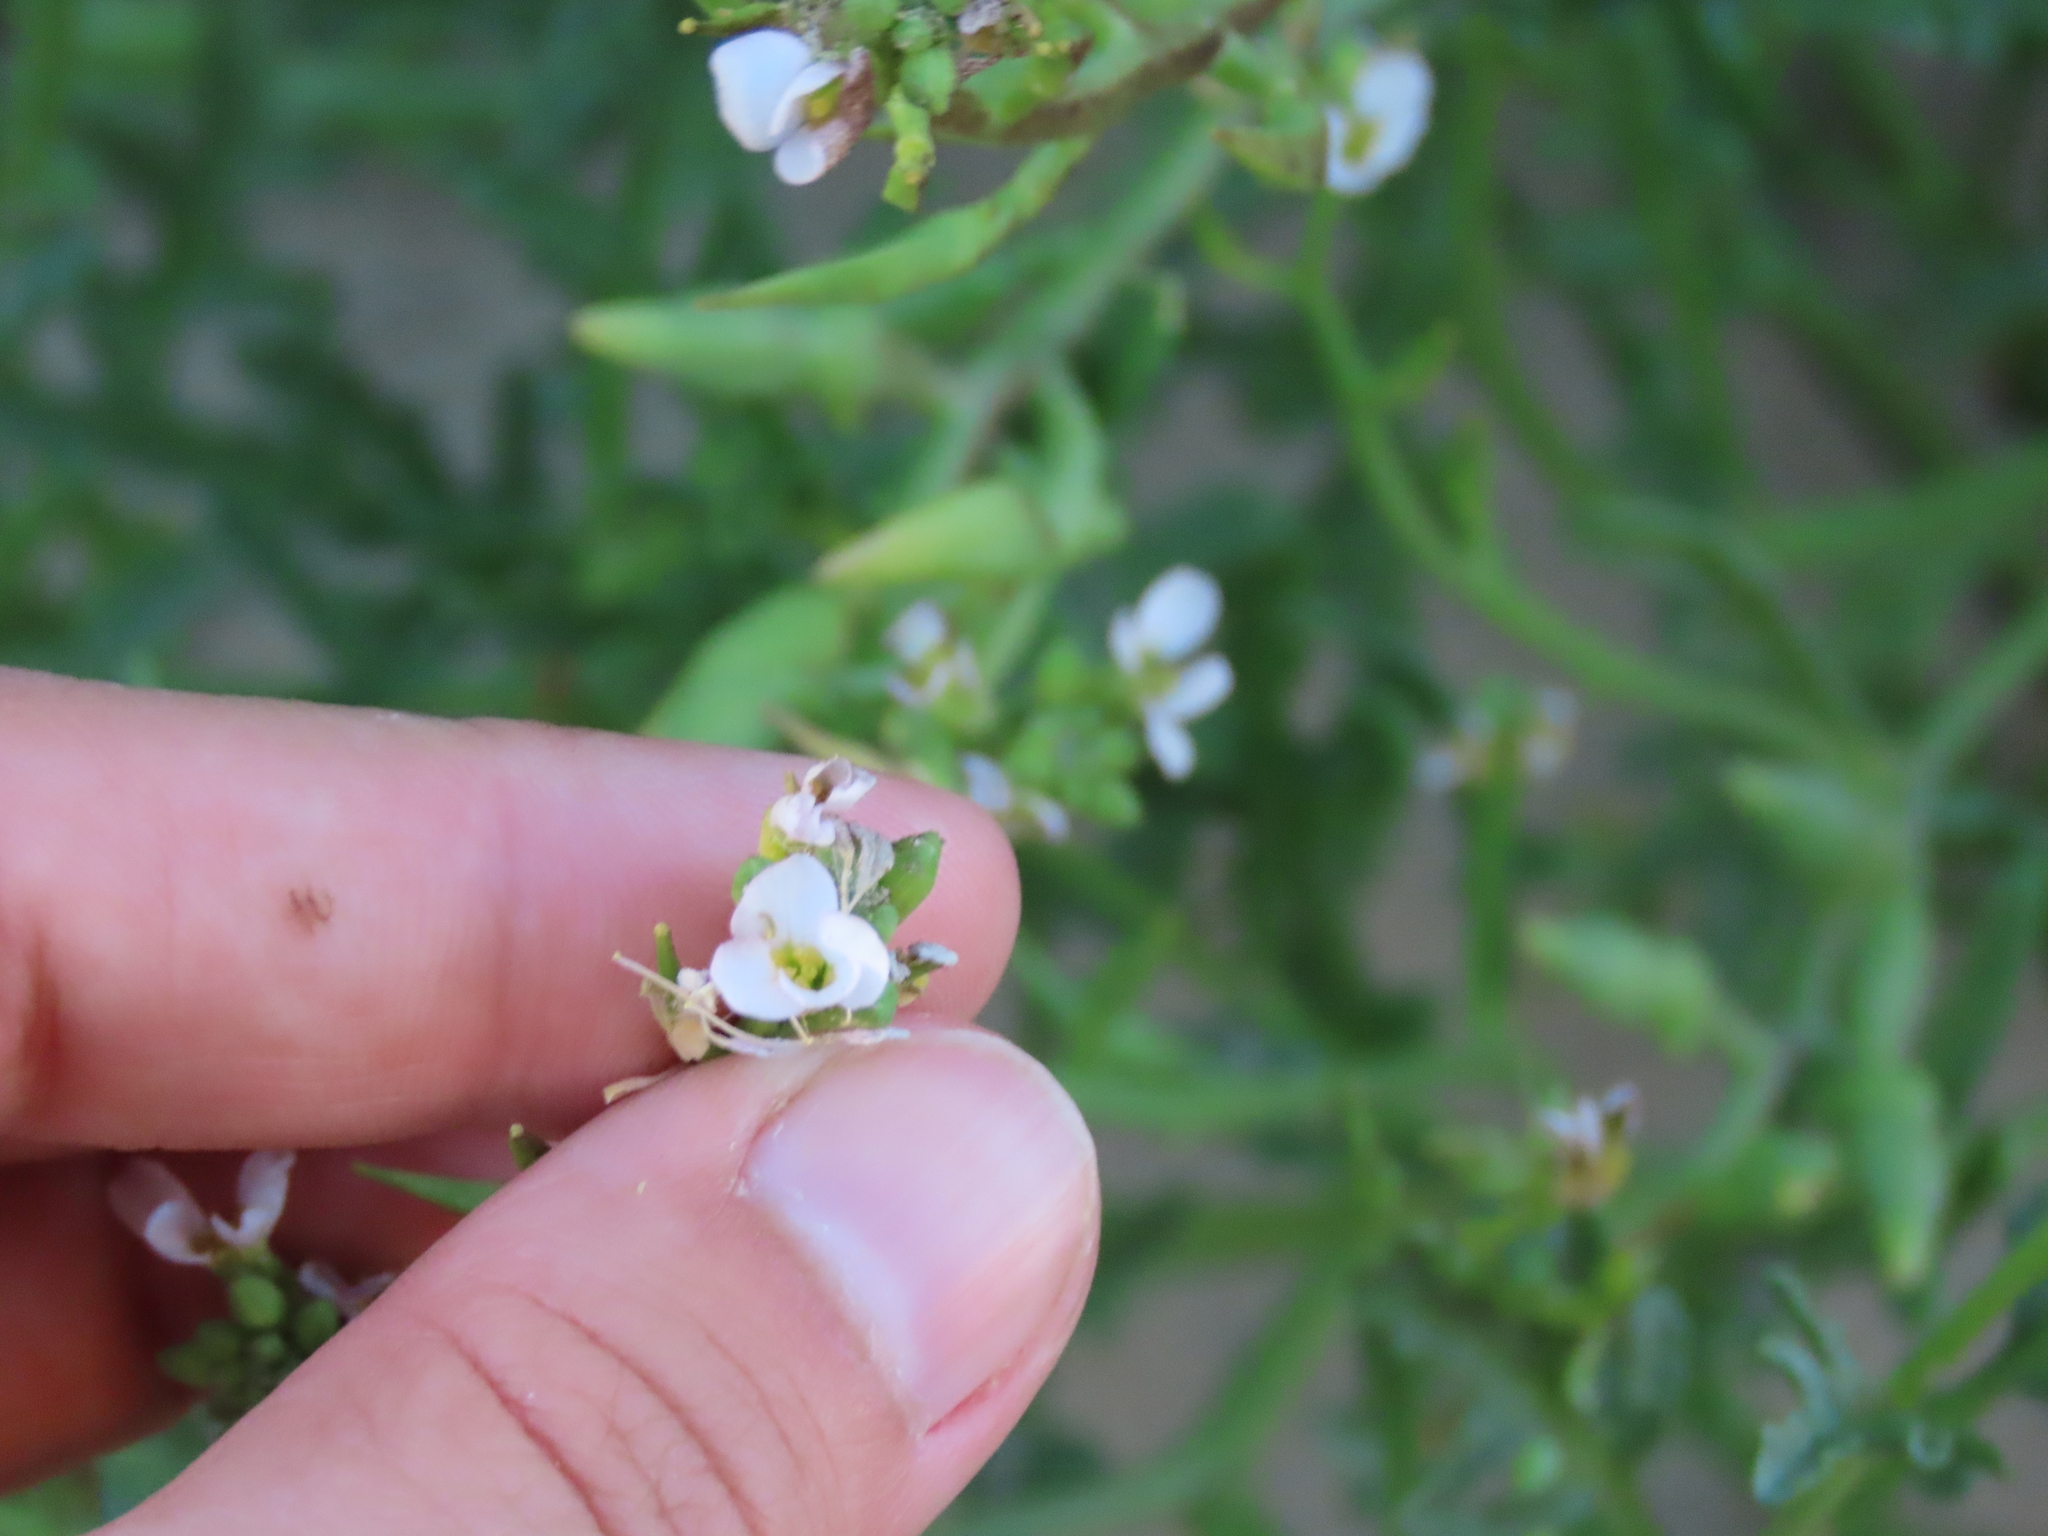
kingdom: Plantae
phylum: Tracheophyta
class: Magnoliopsida
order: Brassicales
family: Brassicaceae
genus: Cakile
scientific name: Cakile maritima
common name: Sea rocket
